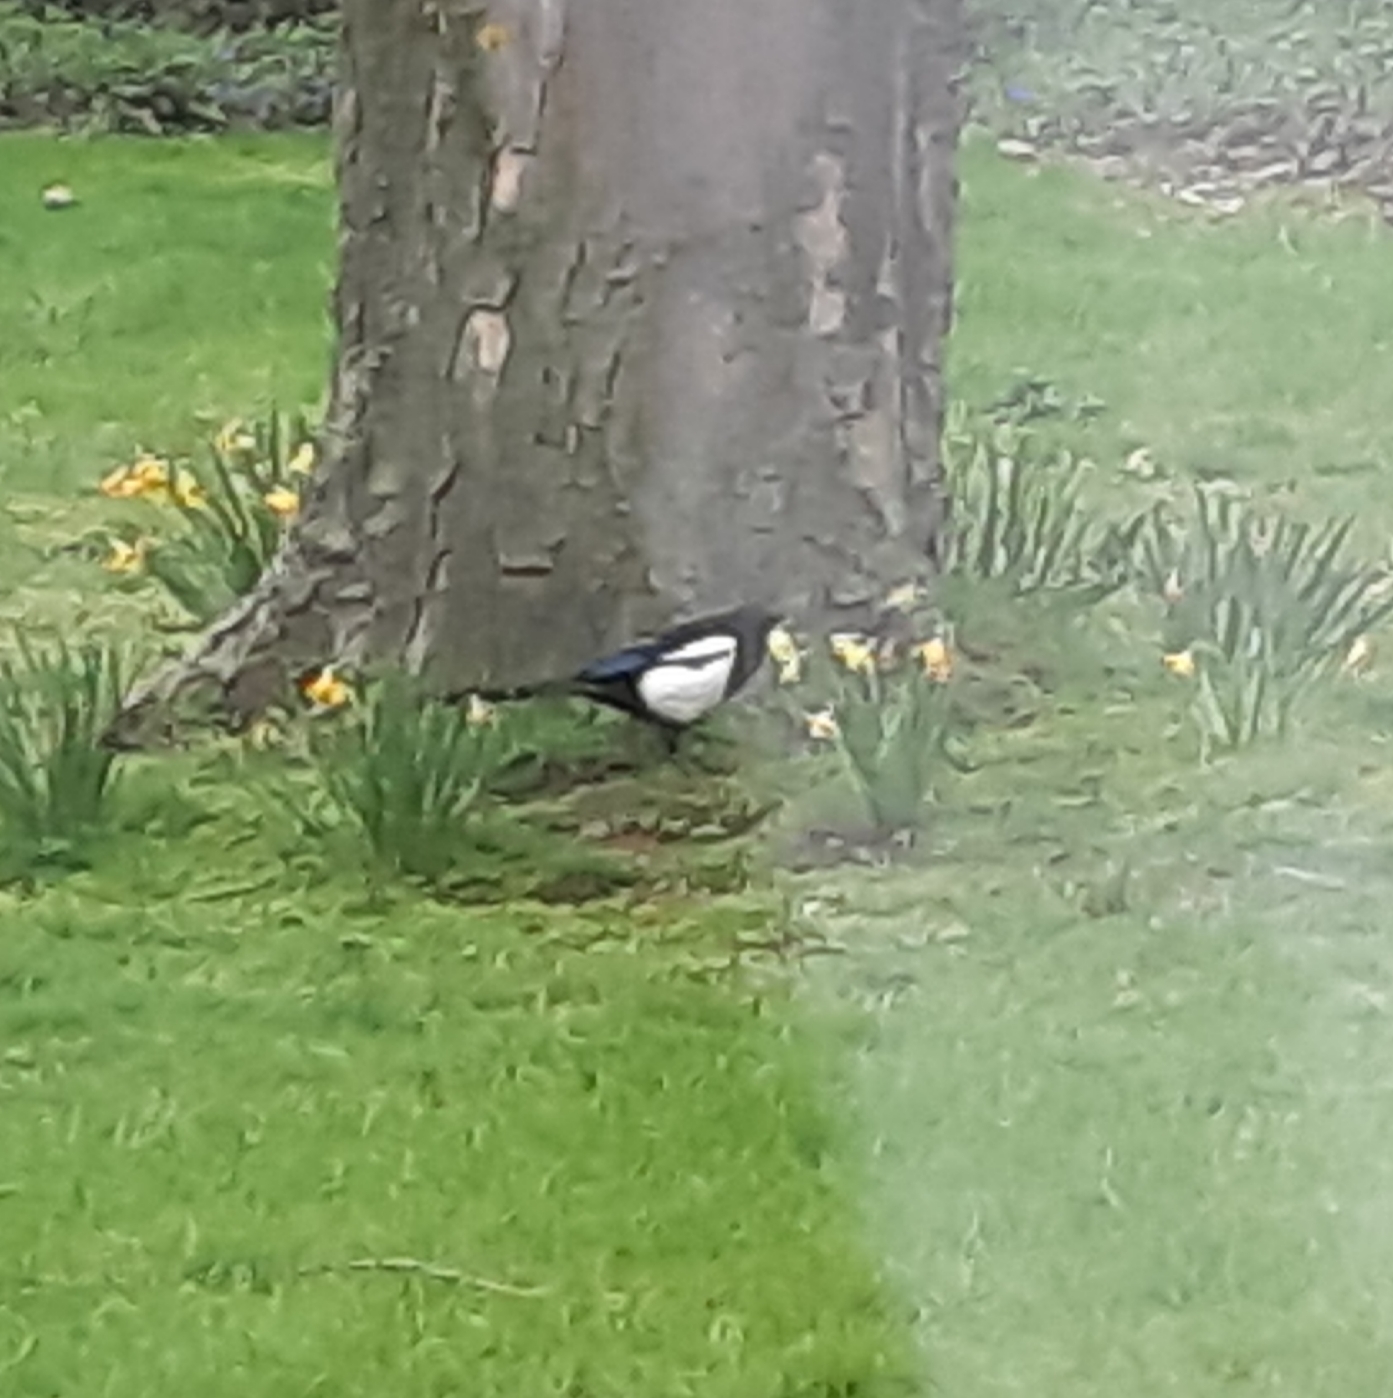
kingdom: Animalia
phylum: Chordata
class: Aves
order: Passeriformes
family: Corvidae
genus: Pica
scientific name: Pica pica
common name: Eurasian magpie
